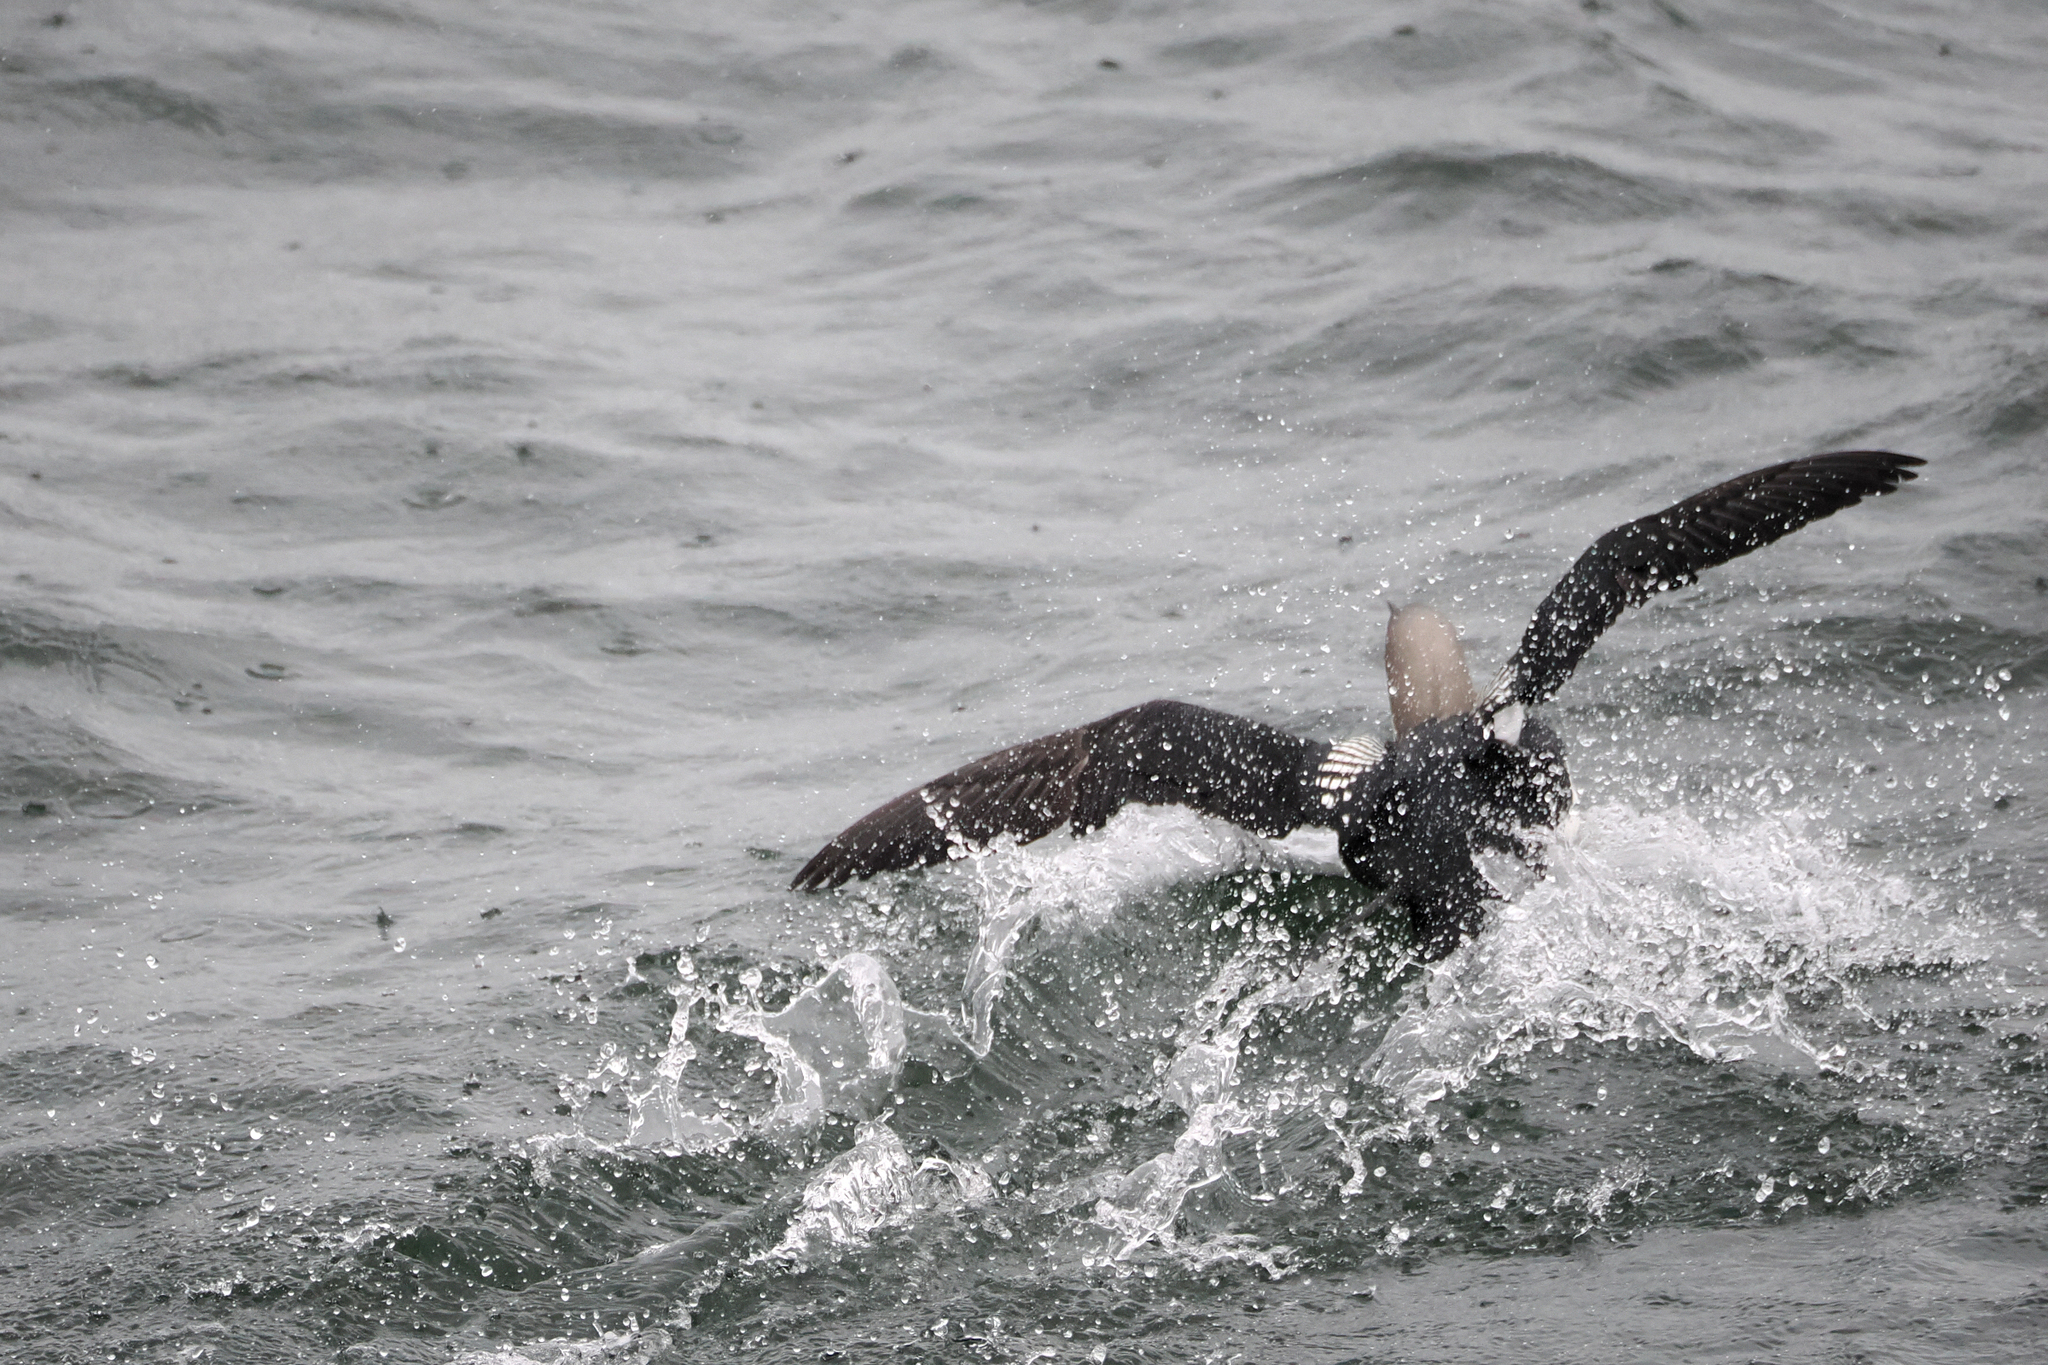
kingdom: Animalia
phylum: Chordata
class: Aves
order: Gaviiformes
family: Gaviidae
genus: Gavia
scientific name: Gavia pacifica
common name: Pacific loon
